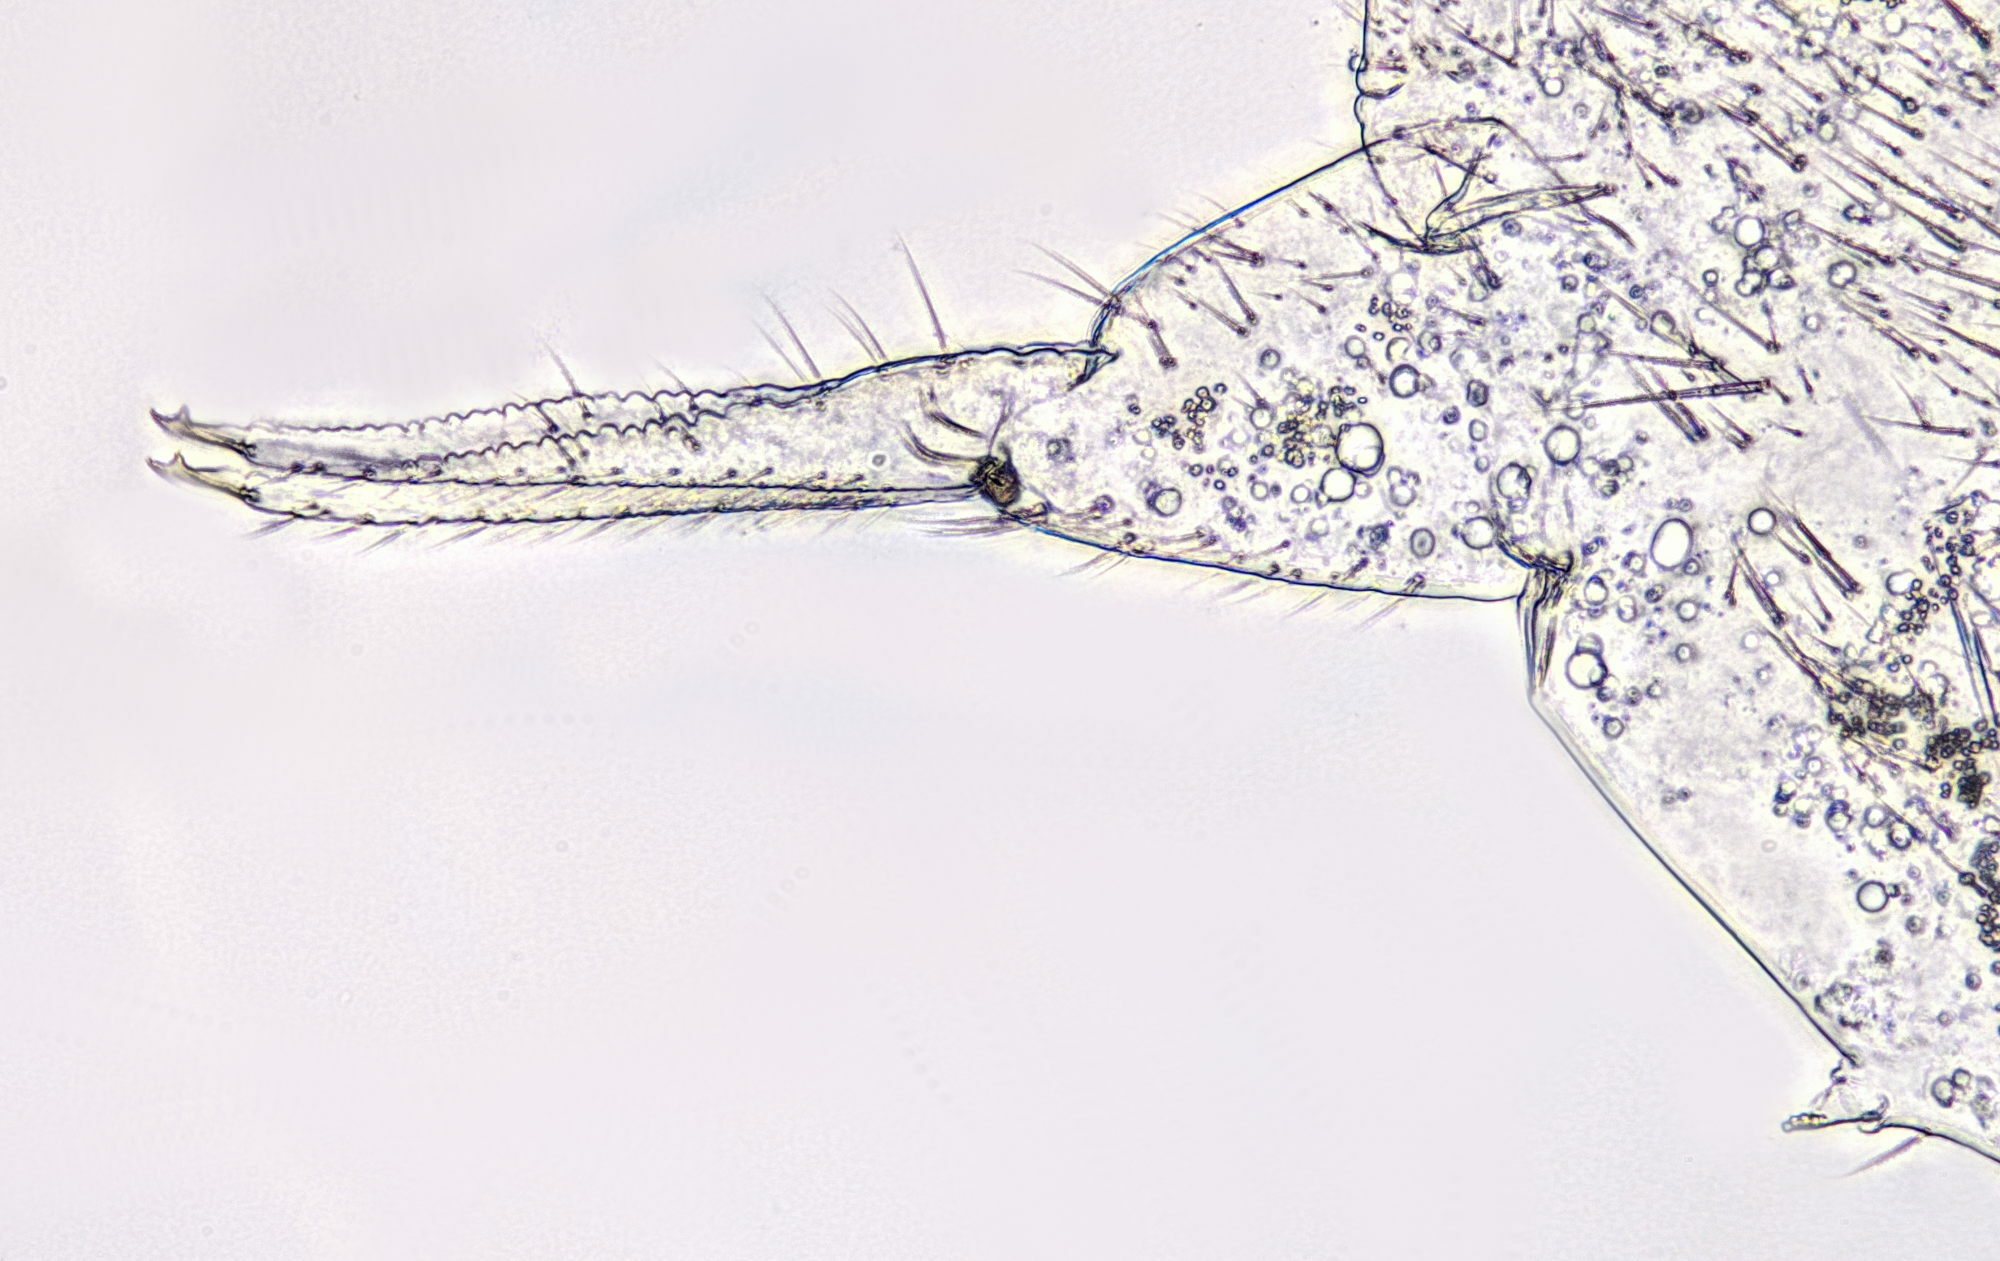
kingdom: Animalia
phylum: Arthropoda
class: Collembola
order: Entomobryomorpha
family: Isotomidae
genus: Folsomia
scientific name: Folsomia candida
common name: Springtail
